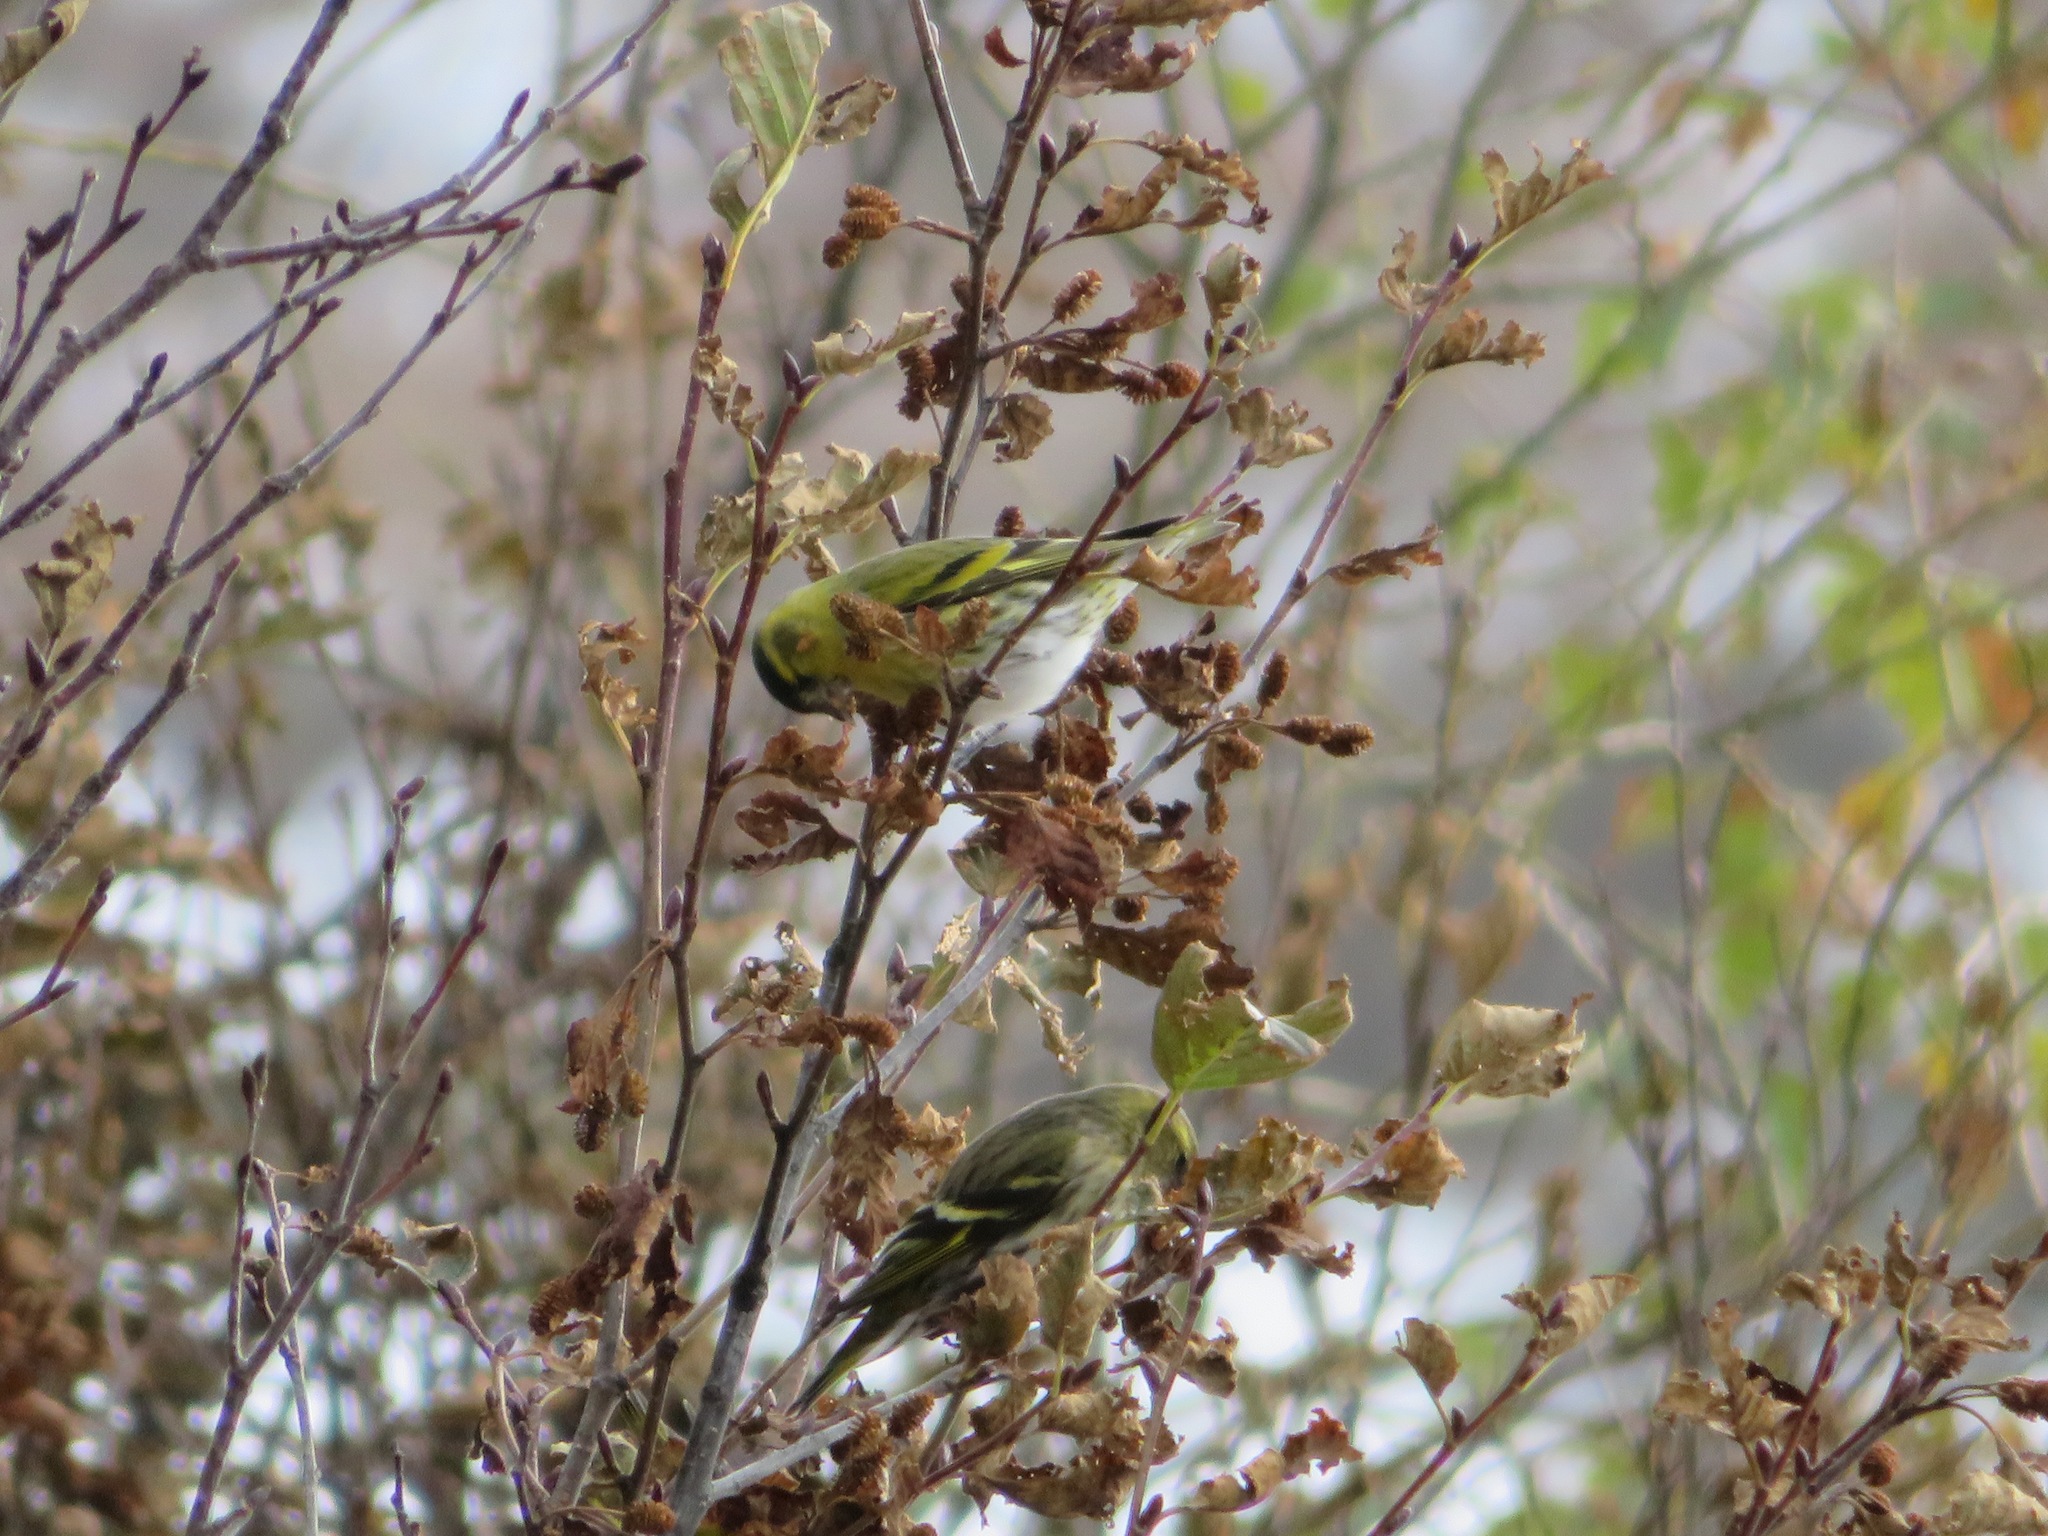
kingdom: Animalia
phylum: Chordata
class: Aves
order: Passeriformes
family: Fringillidae
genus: Spinus
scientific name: Spinus spinus
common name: Eurasian siskin
